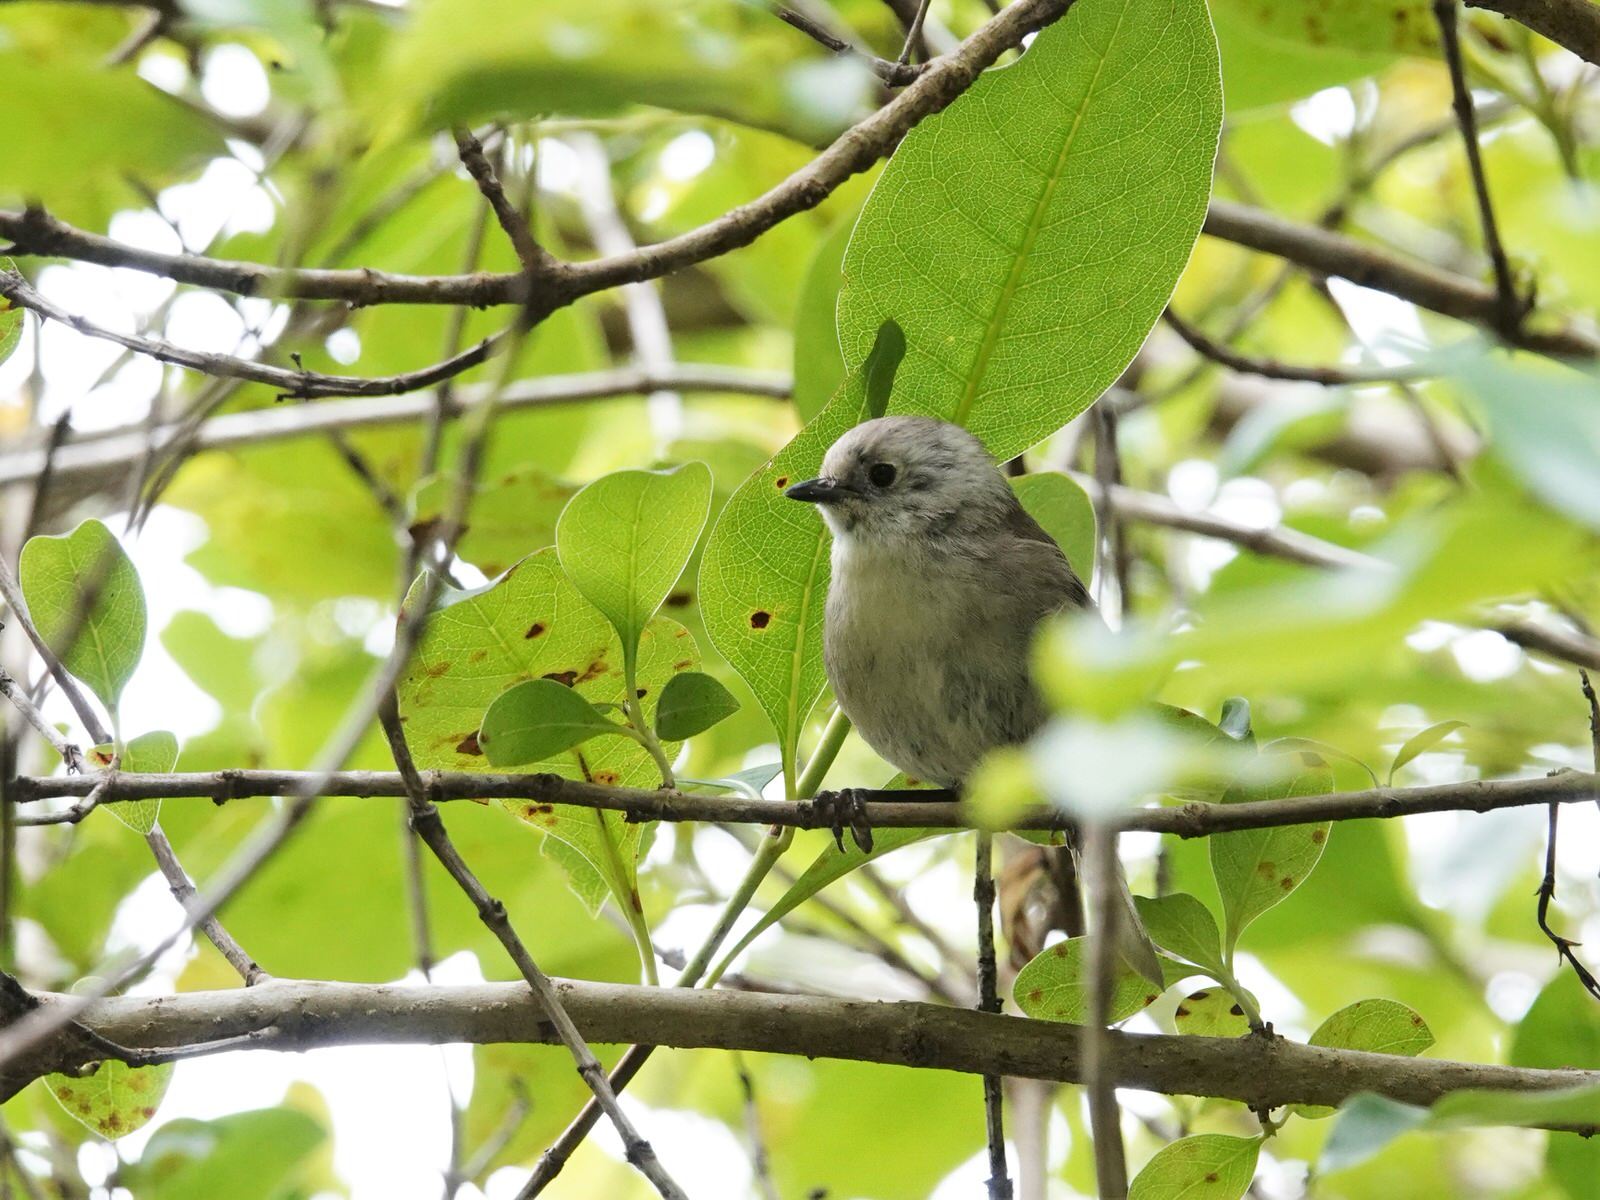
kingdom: Animalia
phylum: Chordata
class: Aves
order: Passeriformes
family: Acanthizidae
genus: Mohoua
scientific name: Mohoua albicilla
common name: Whitehead
